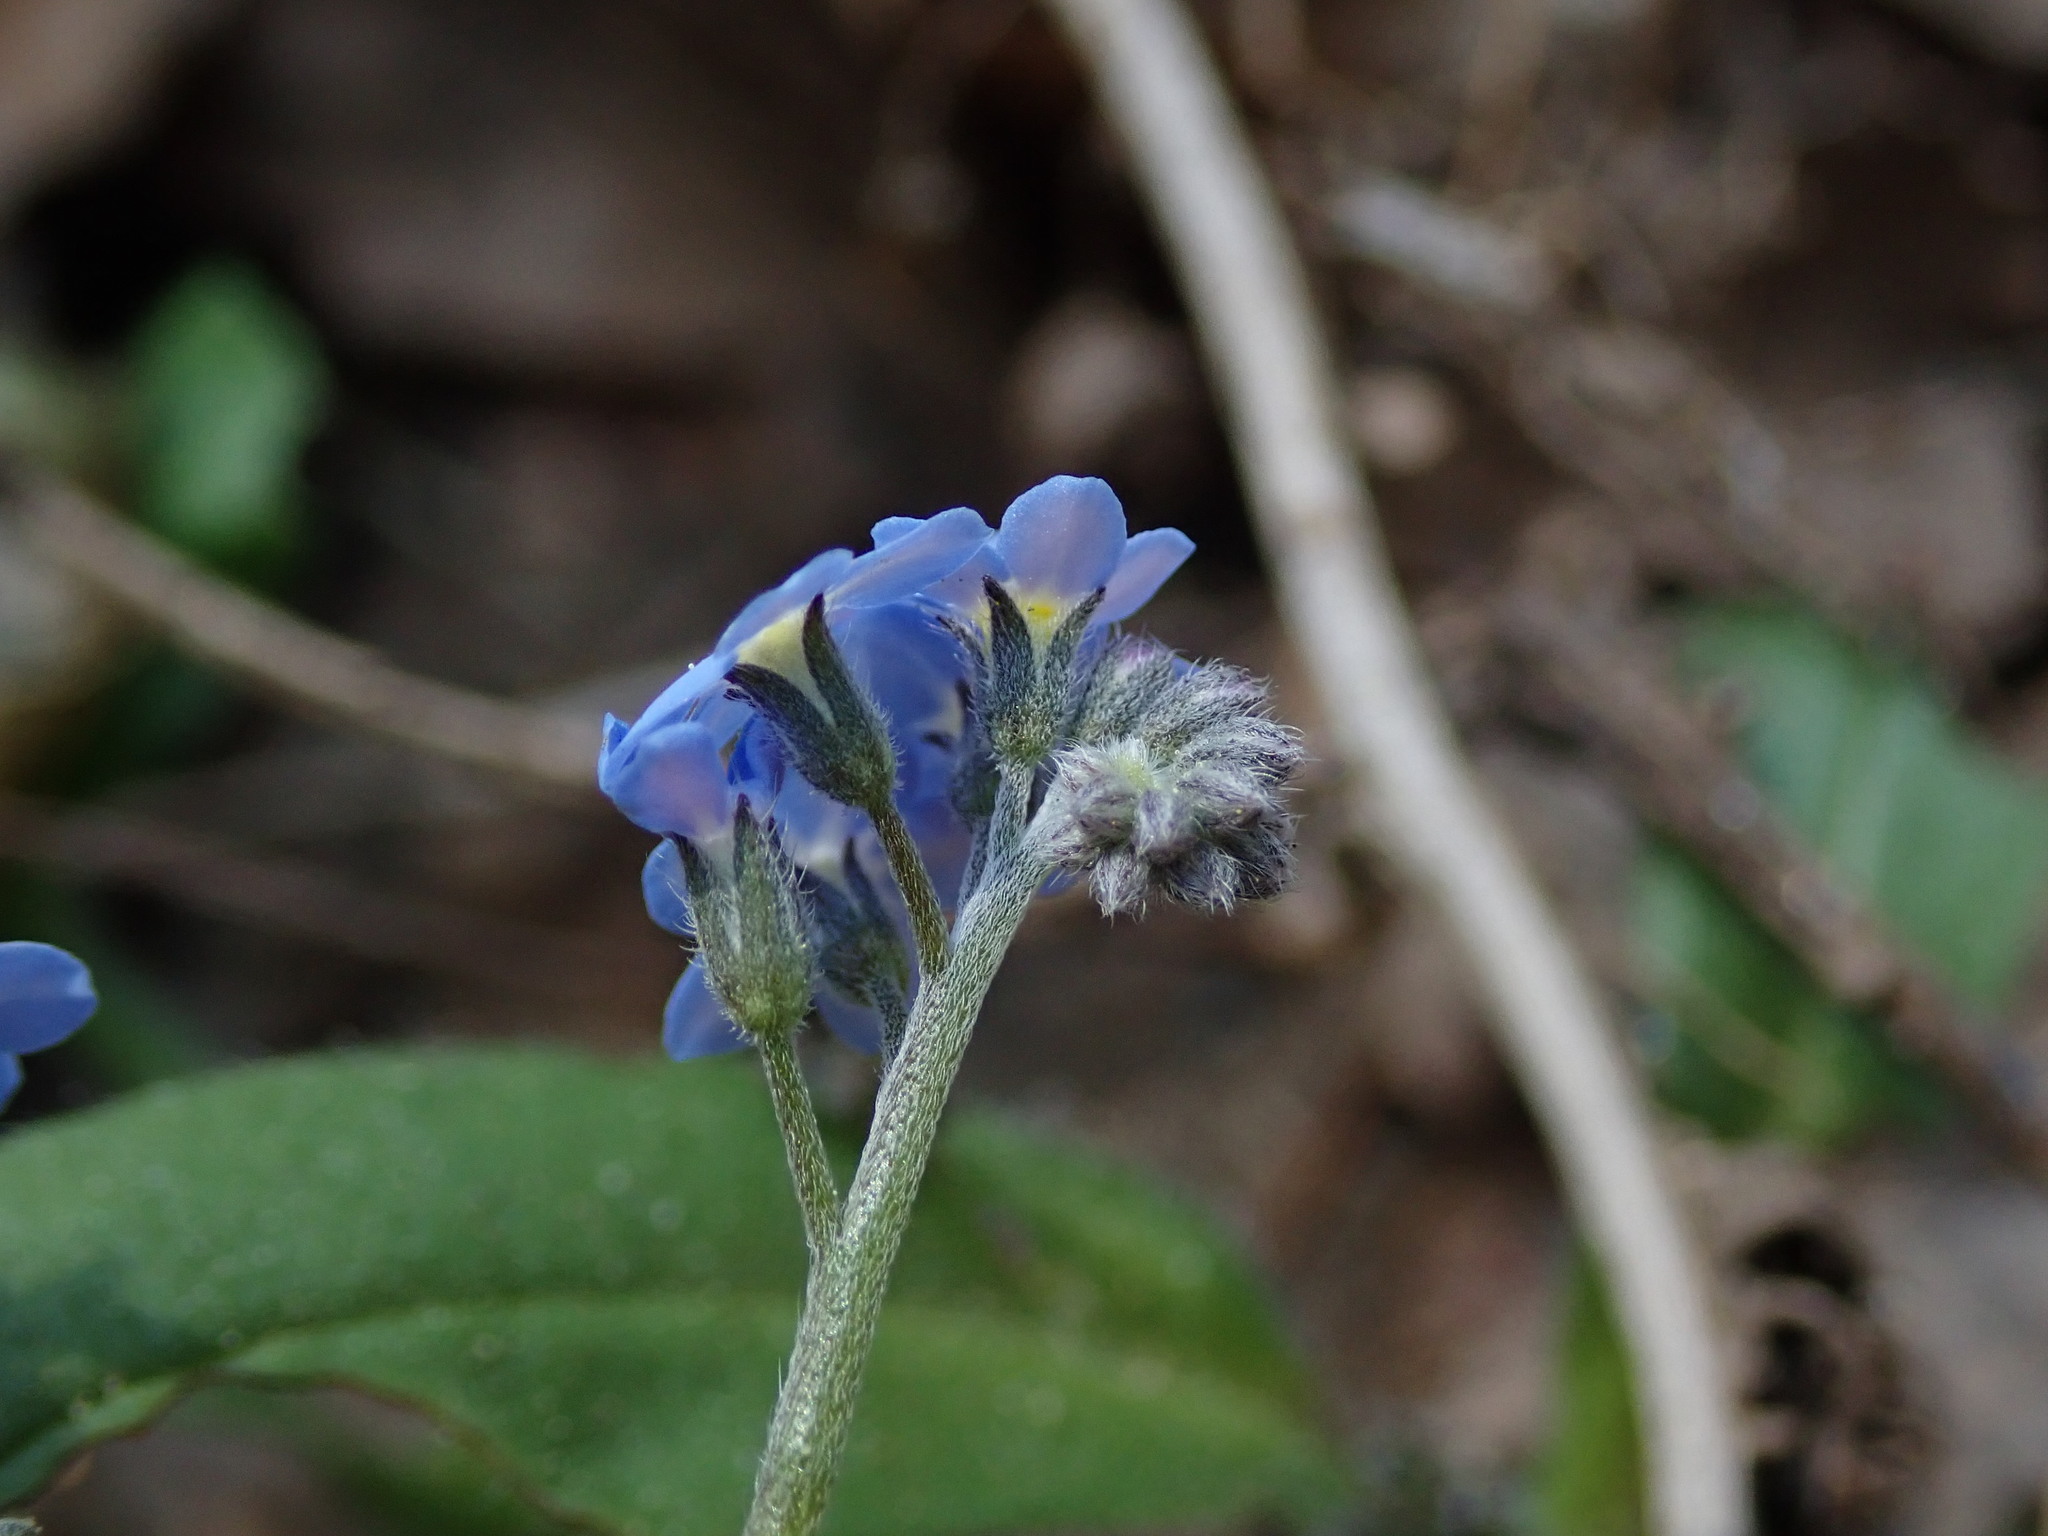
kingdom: Plantae
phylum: Tracheophyta
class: Magnoliopsida
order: Boraginales
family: Boraginaceae
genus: Myosotis
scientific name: Myosotis sylvatica
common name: Wood forget-me-not
